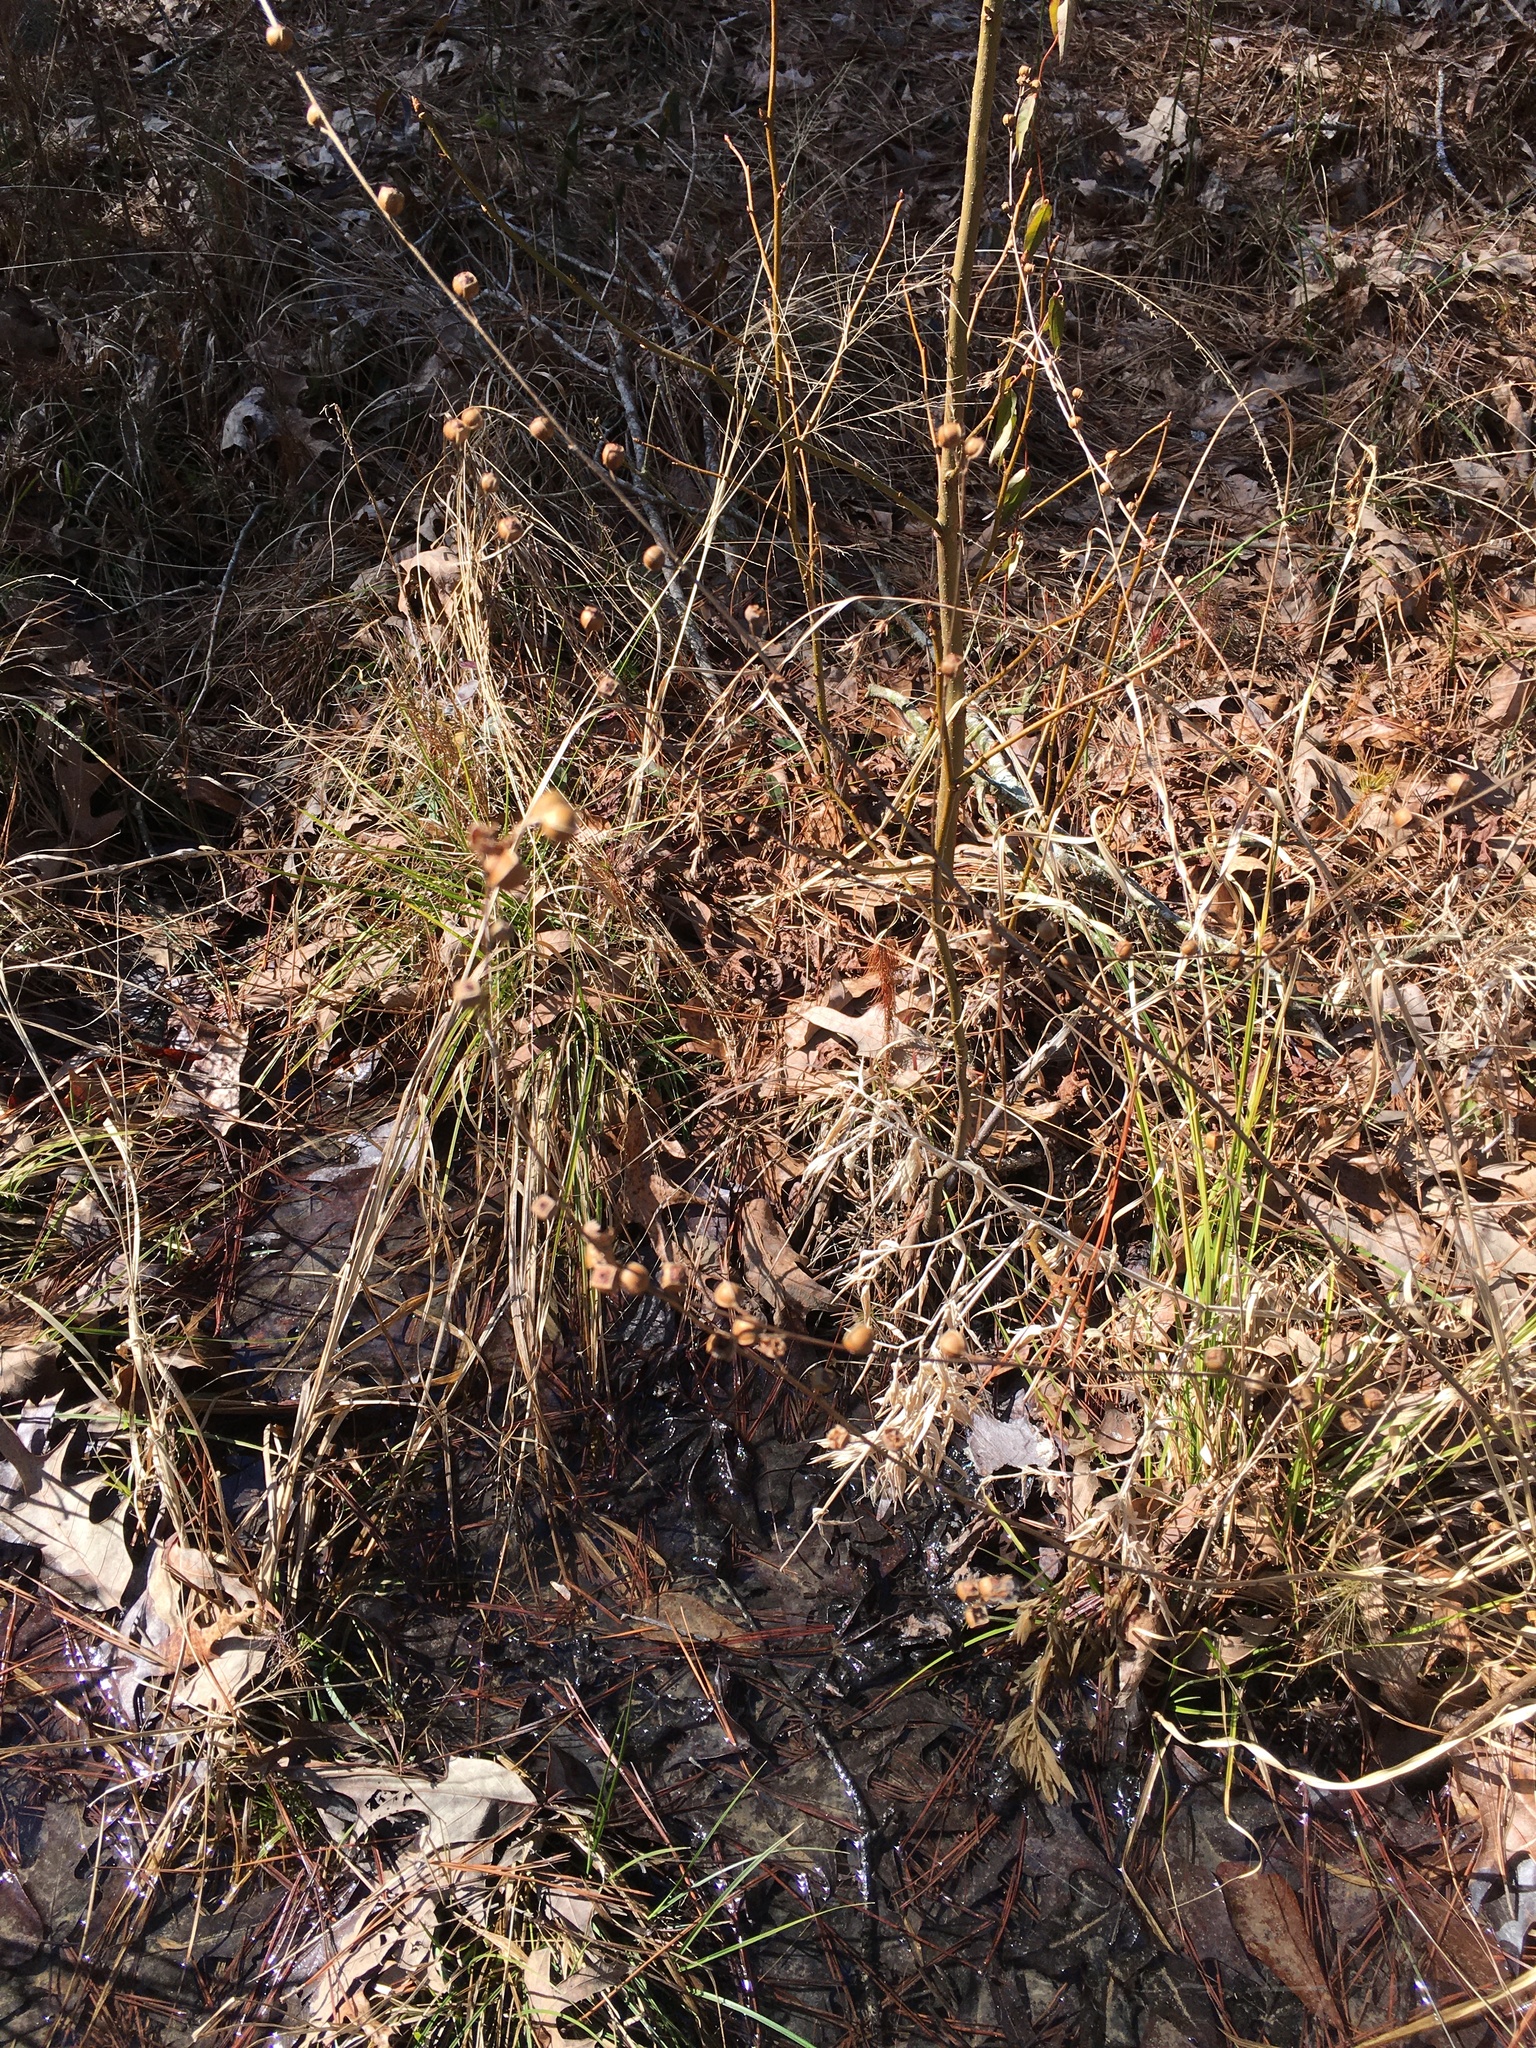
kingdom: Plantae
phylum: Tracheophyta
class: Magnoliopsida
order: Myrtales
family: Onagraceae
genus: Ludwigia
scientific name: Ludwigia alternifolia
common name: Rattlebox
